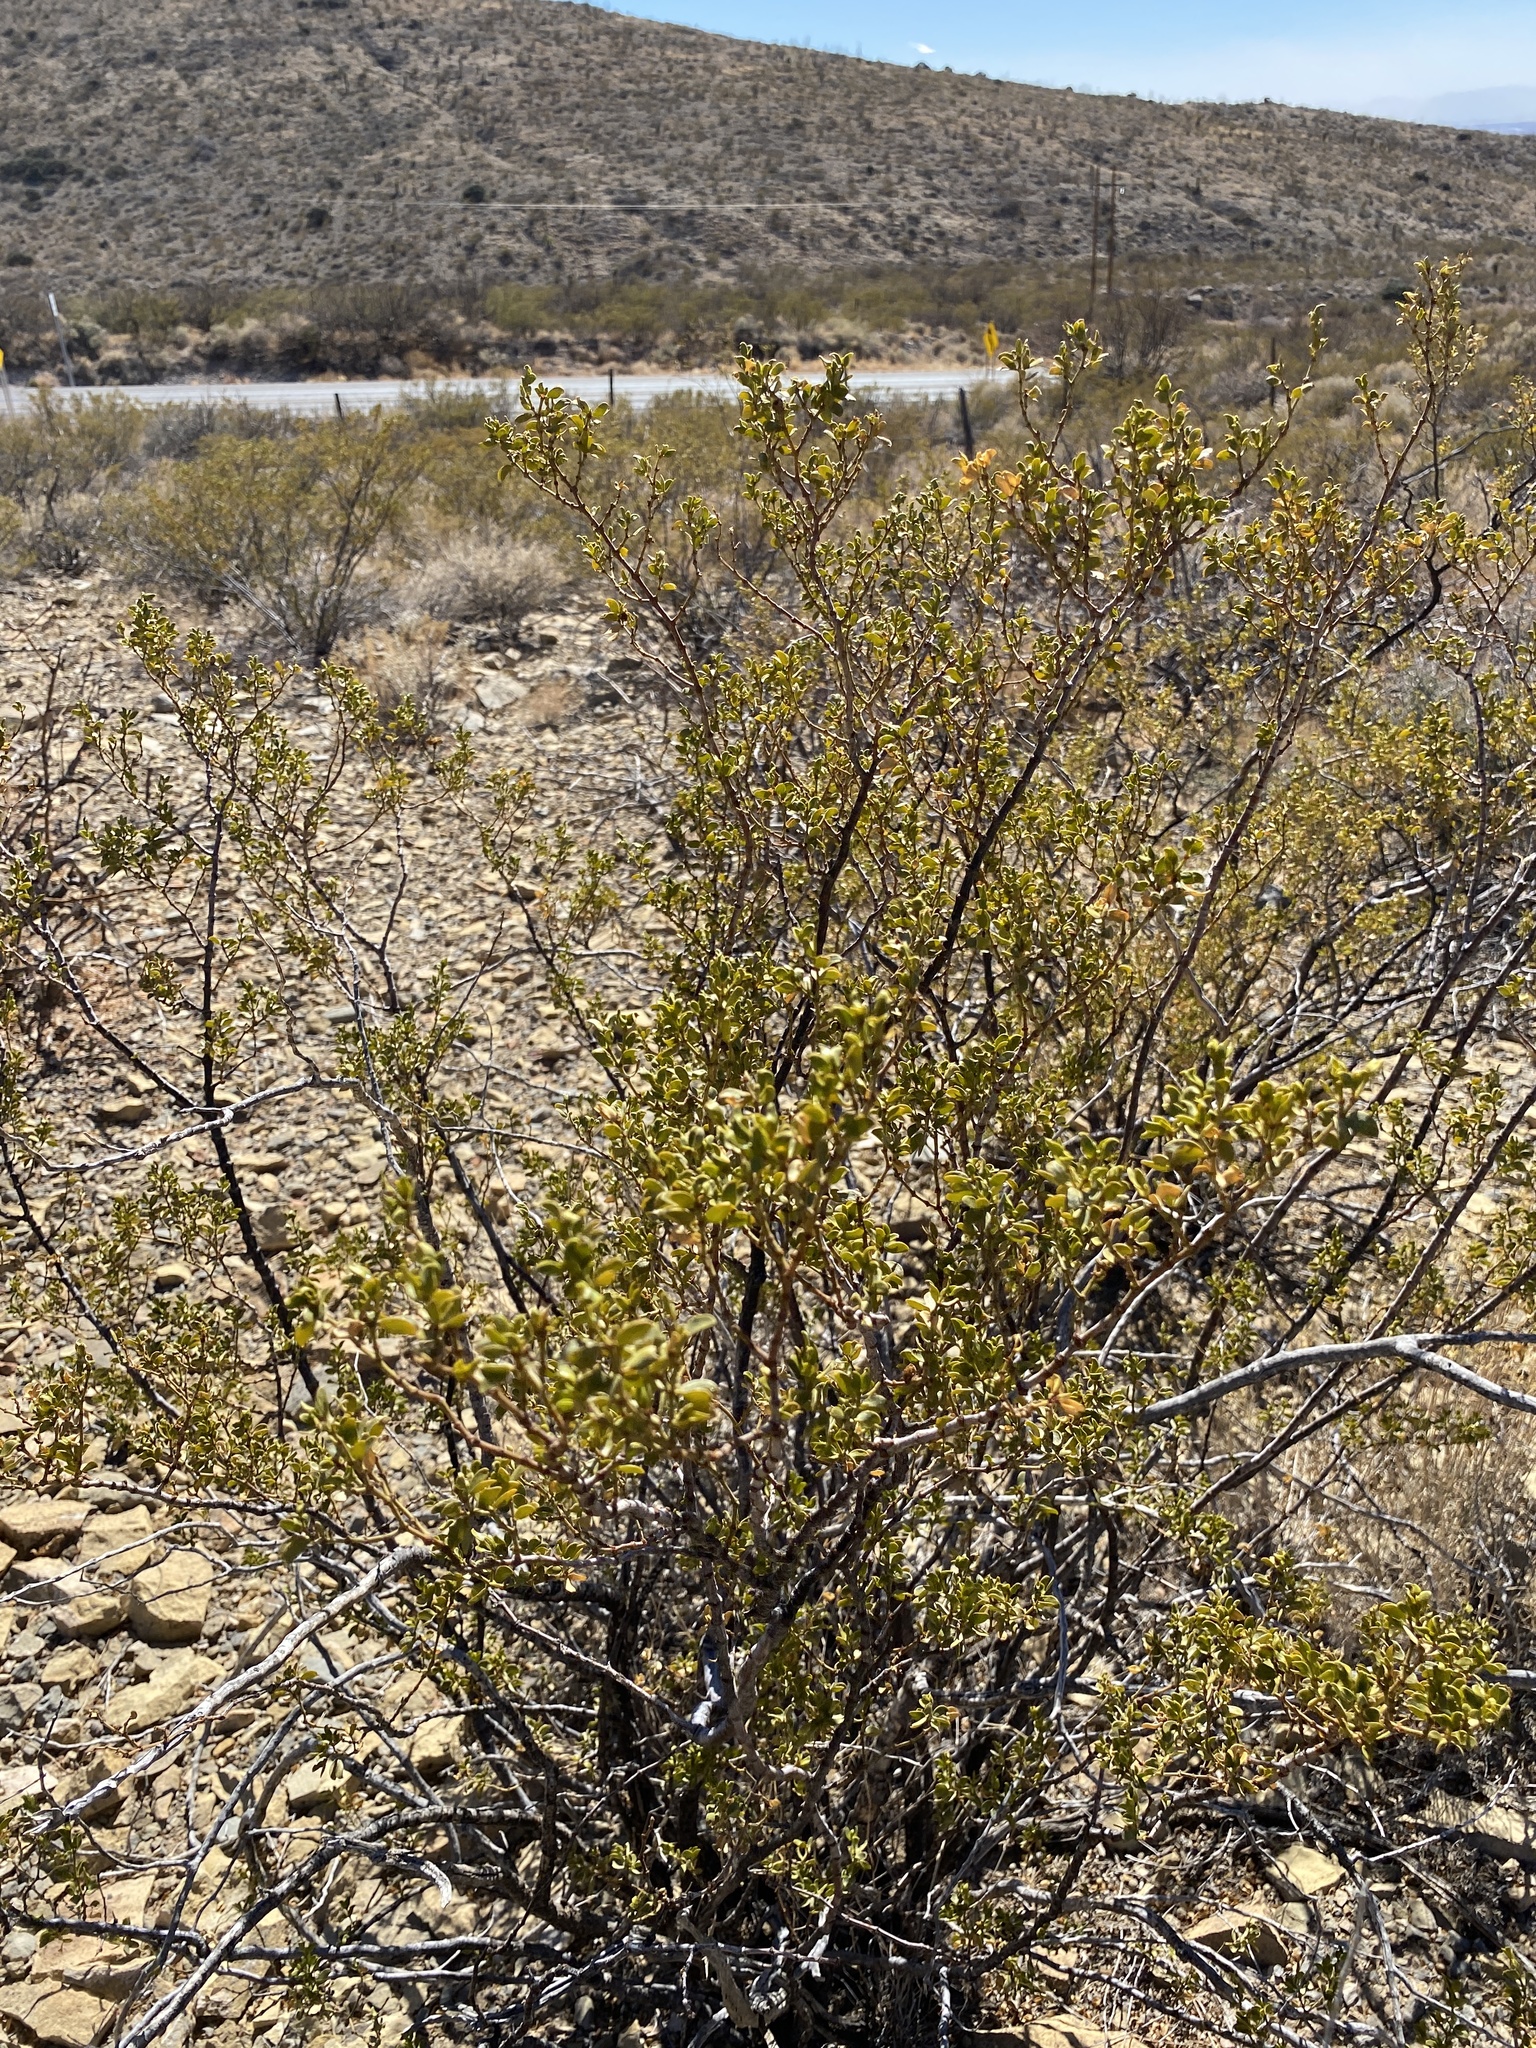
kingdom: Plantae
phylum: Tracheophyta
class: Magnoliopsida
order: Zygophyllales
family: Zygophyllaceae
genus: Larrea
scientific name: Larrea tridentata
